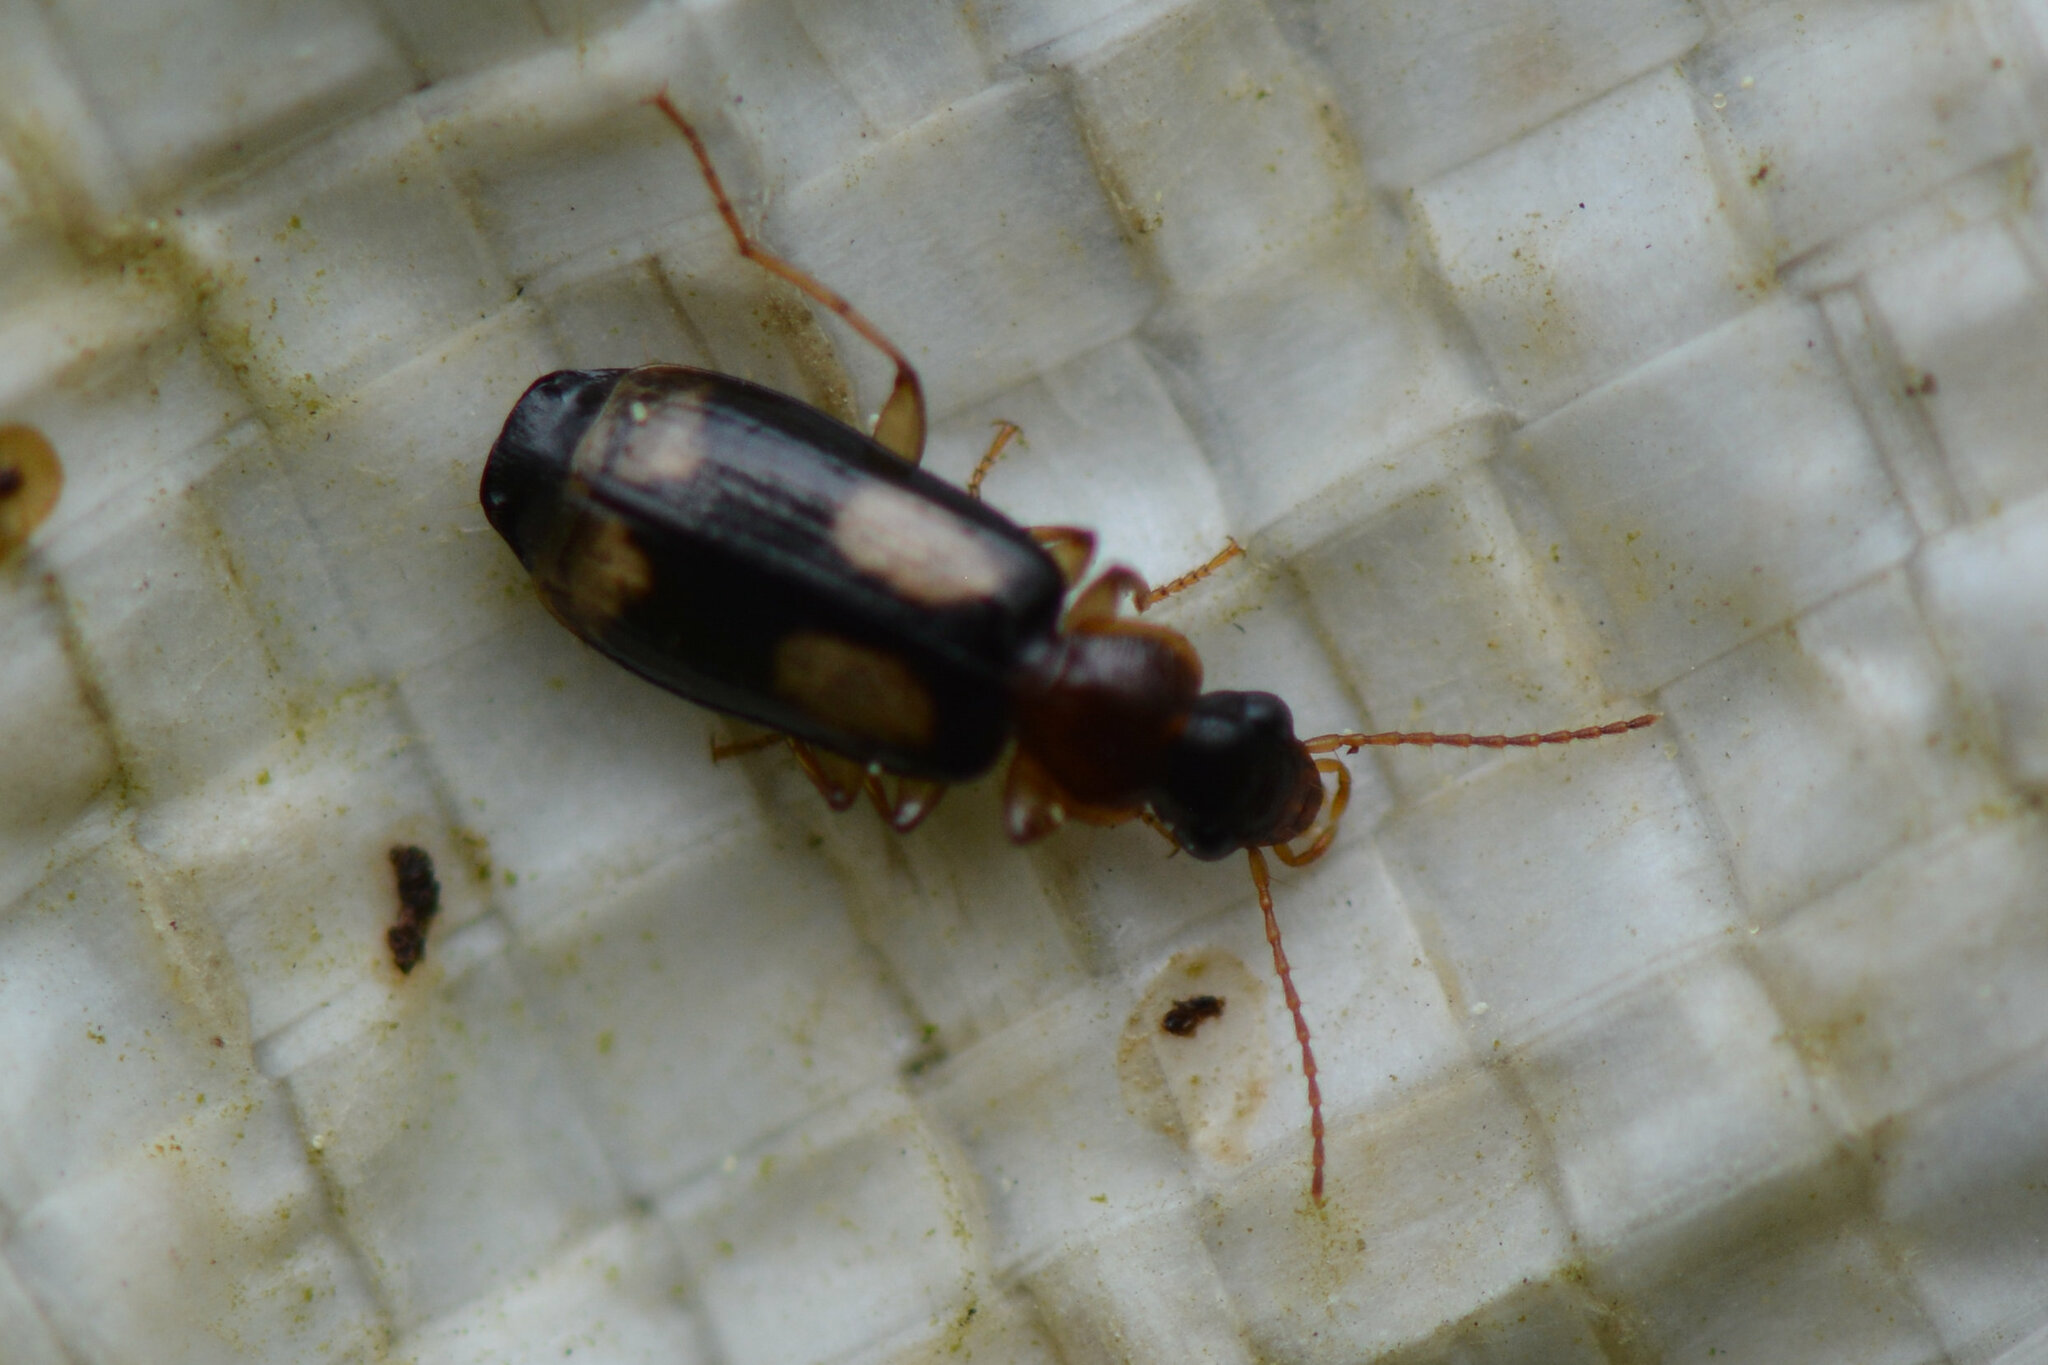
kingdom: Animalia
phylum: Arthropoda
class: Insecta
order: Coleoptera
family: Carabidae
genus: Dromius
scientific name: Dromius quadrimaculatus
